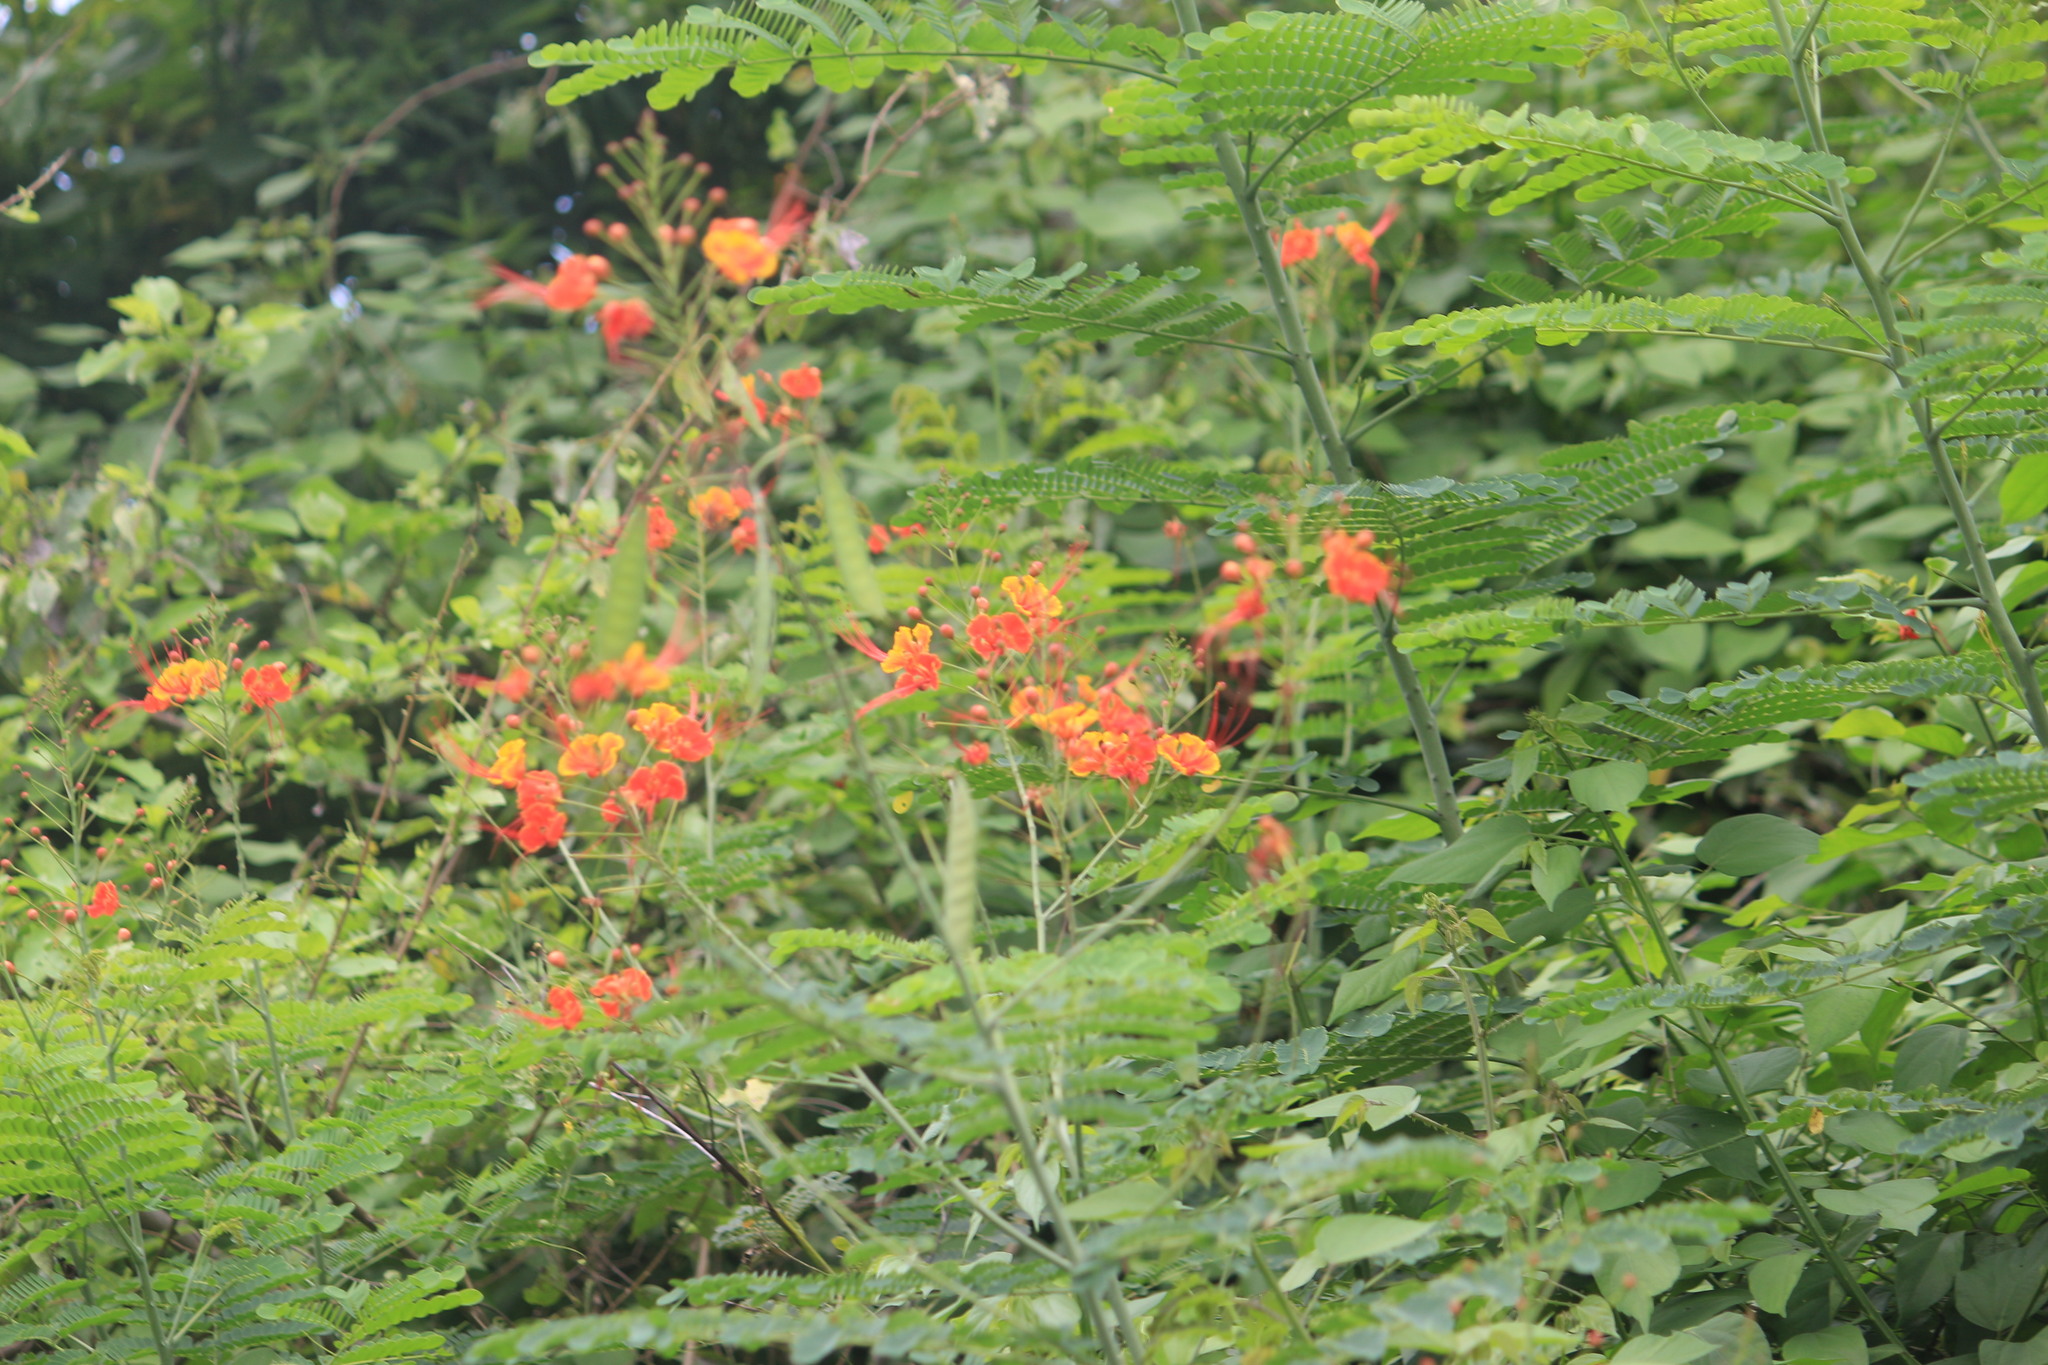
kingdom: Plantae
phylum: Tracheophyta
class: Magnoliopsida
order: Fabales
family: Fabaceae
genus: Caesalpinia
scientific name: Caesalpinia pulcherrima
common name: Pride-of-barbados
